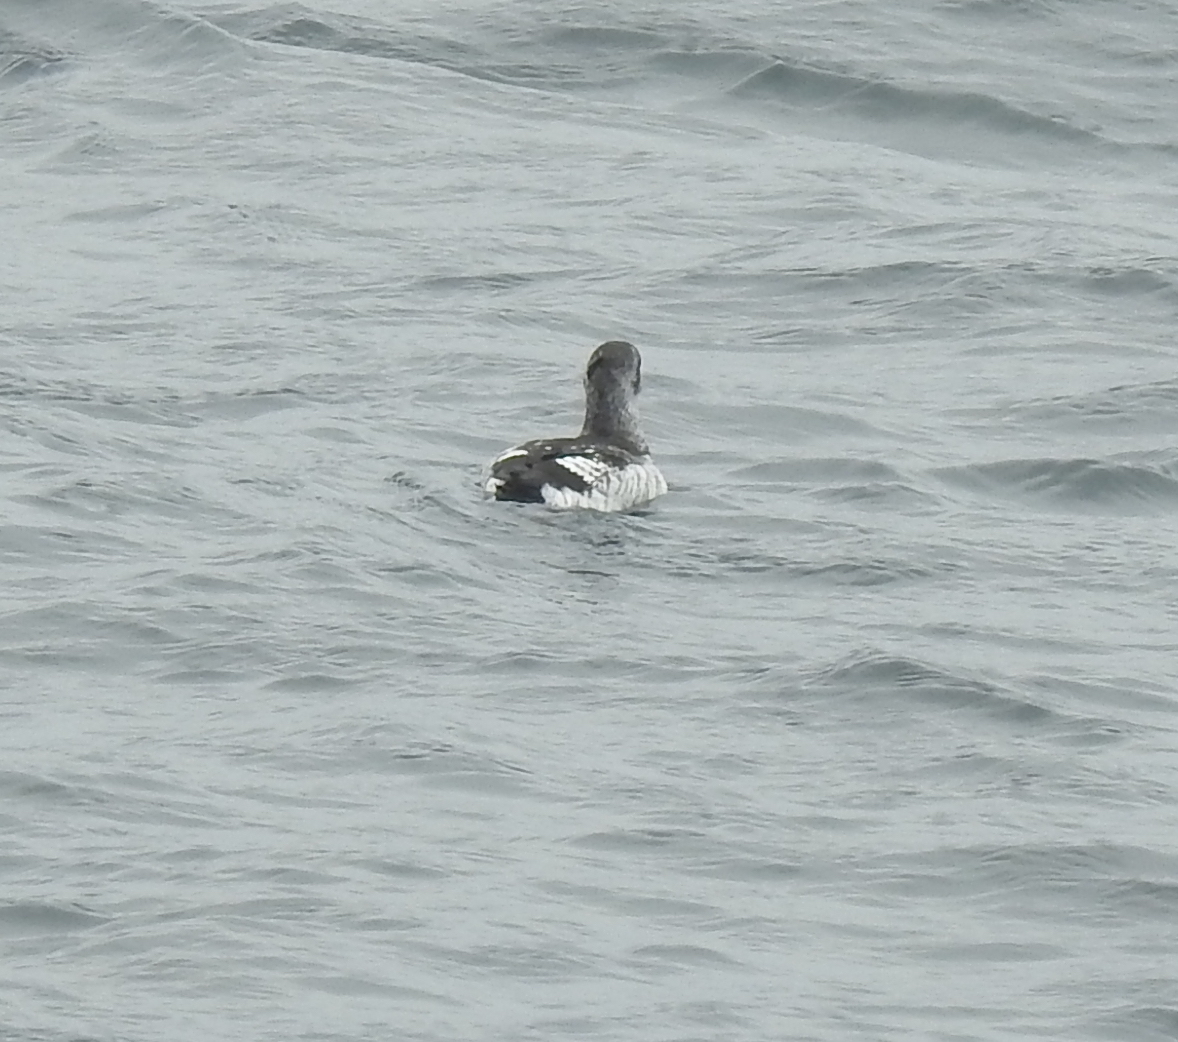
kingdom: Animalia
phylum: Chordata
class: Aves
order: Charadriiformes
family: Alcidae
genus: Cepphus
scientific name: Cepphus columba
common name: Pigeon guillemot
